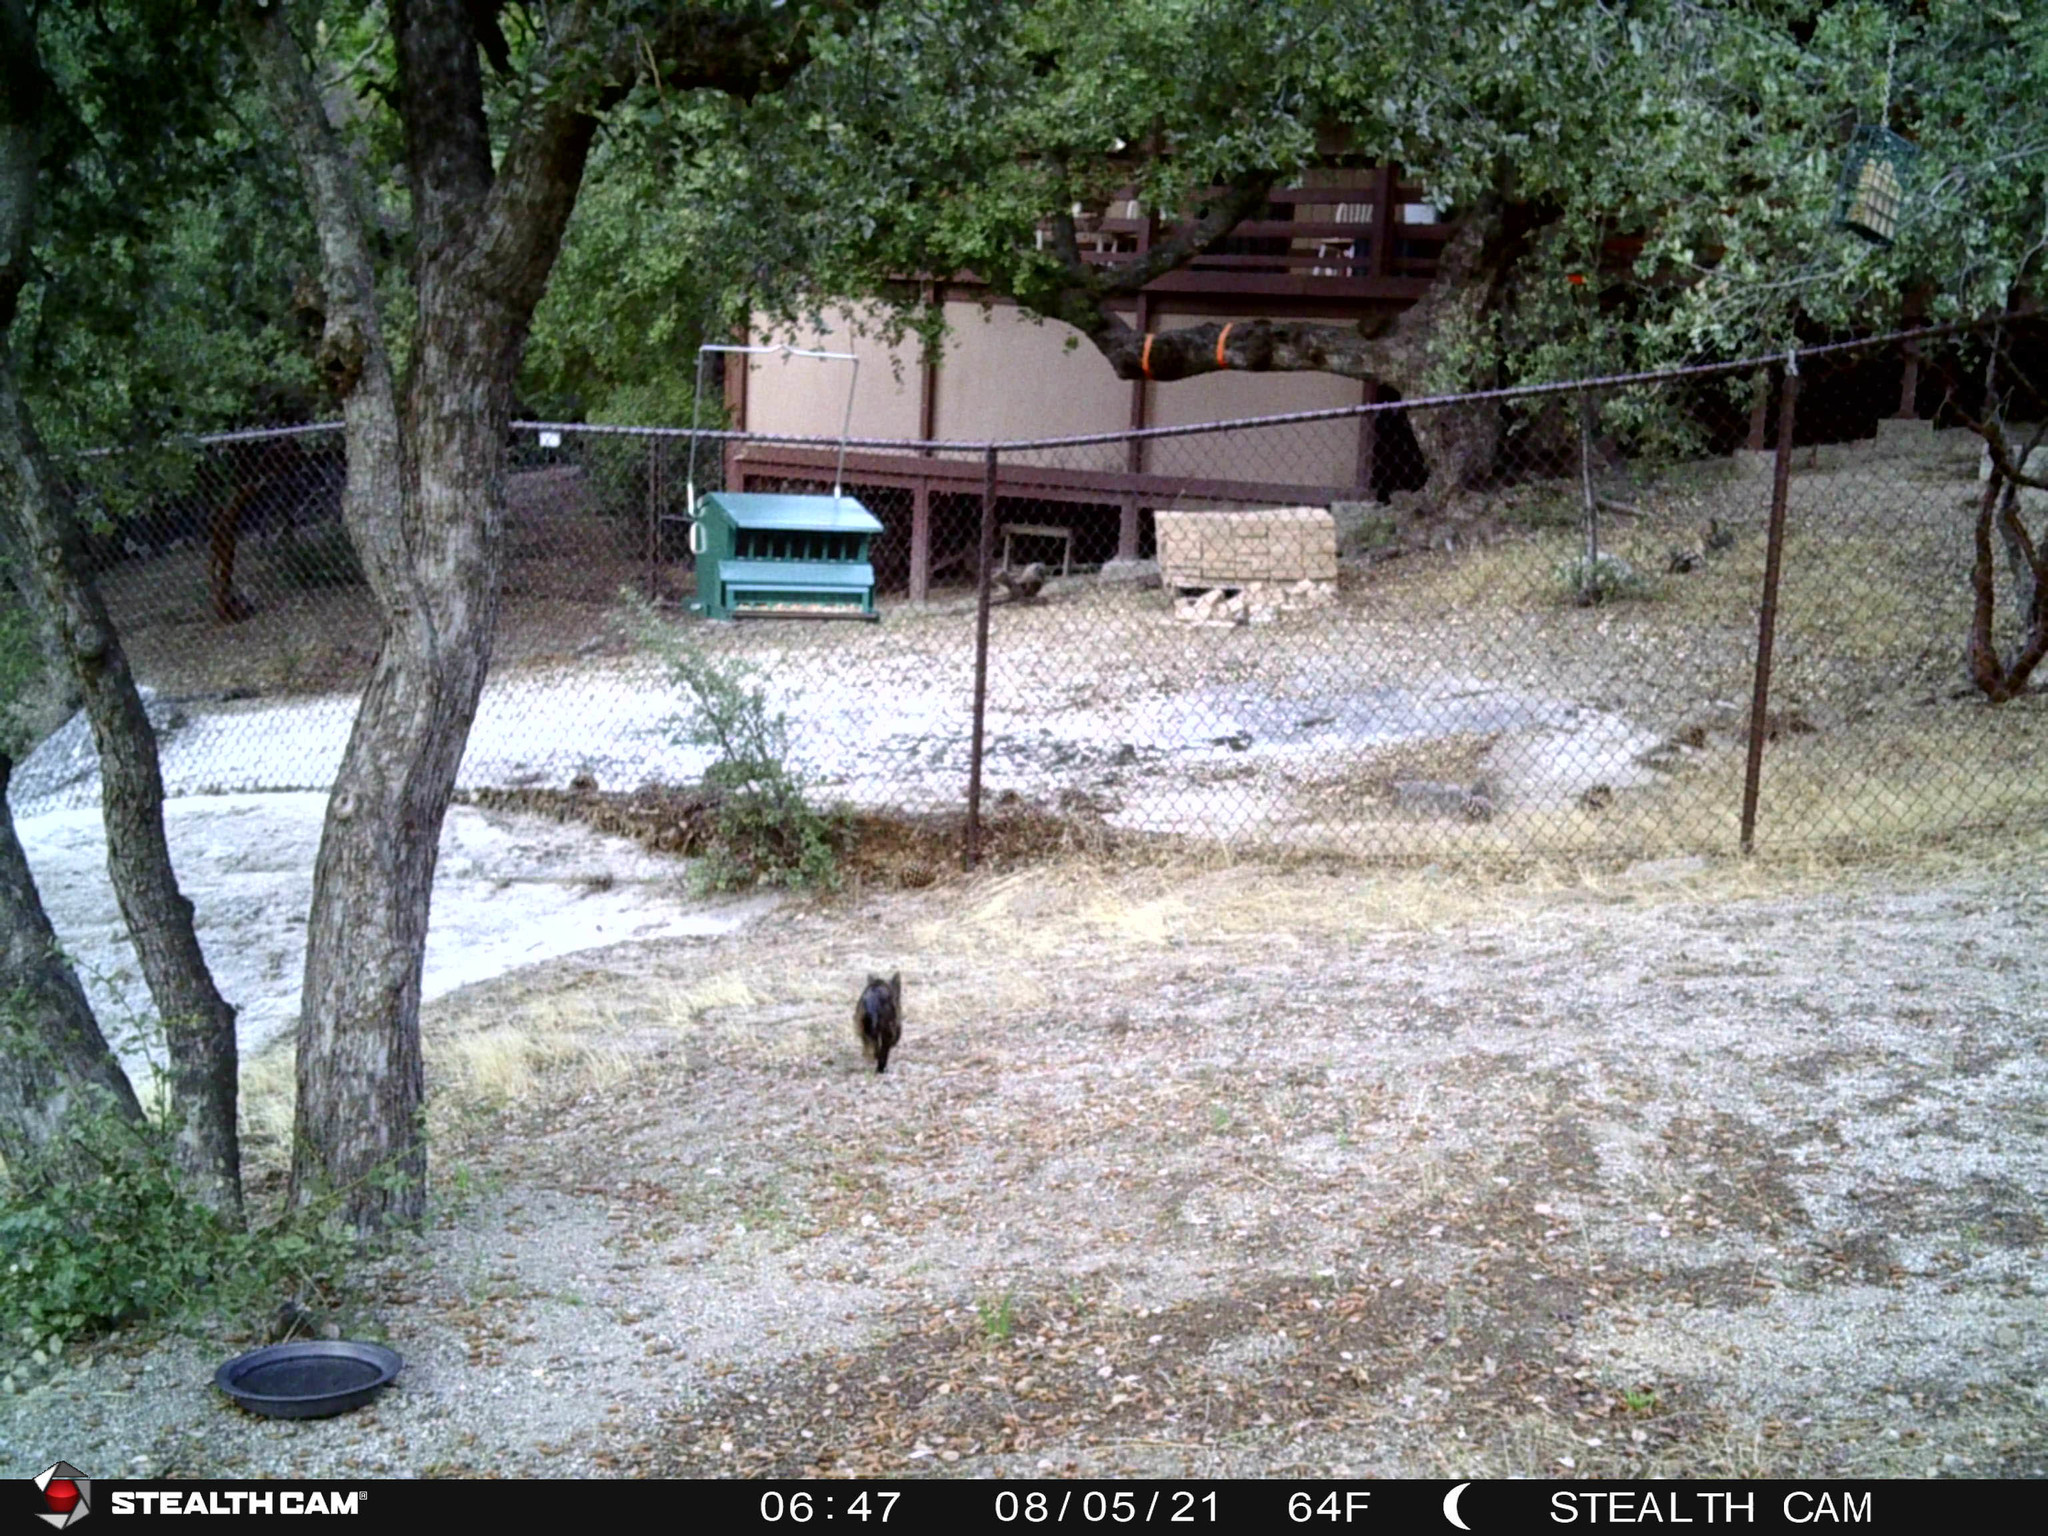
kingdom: Animalia
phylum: Chordata
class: Mammalia
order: Carnivora
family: Felidae
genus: Felis
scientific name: Felis catus
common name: Domestic cat
